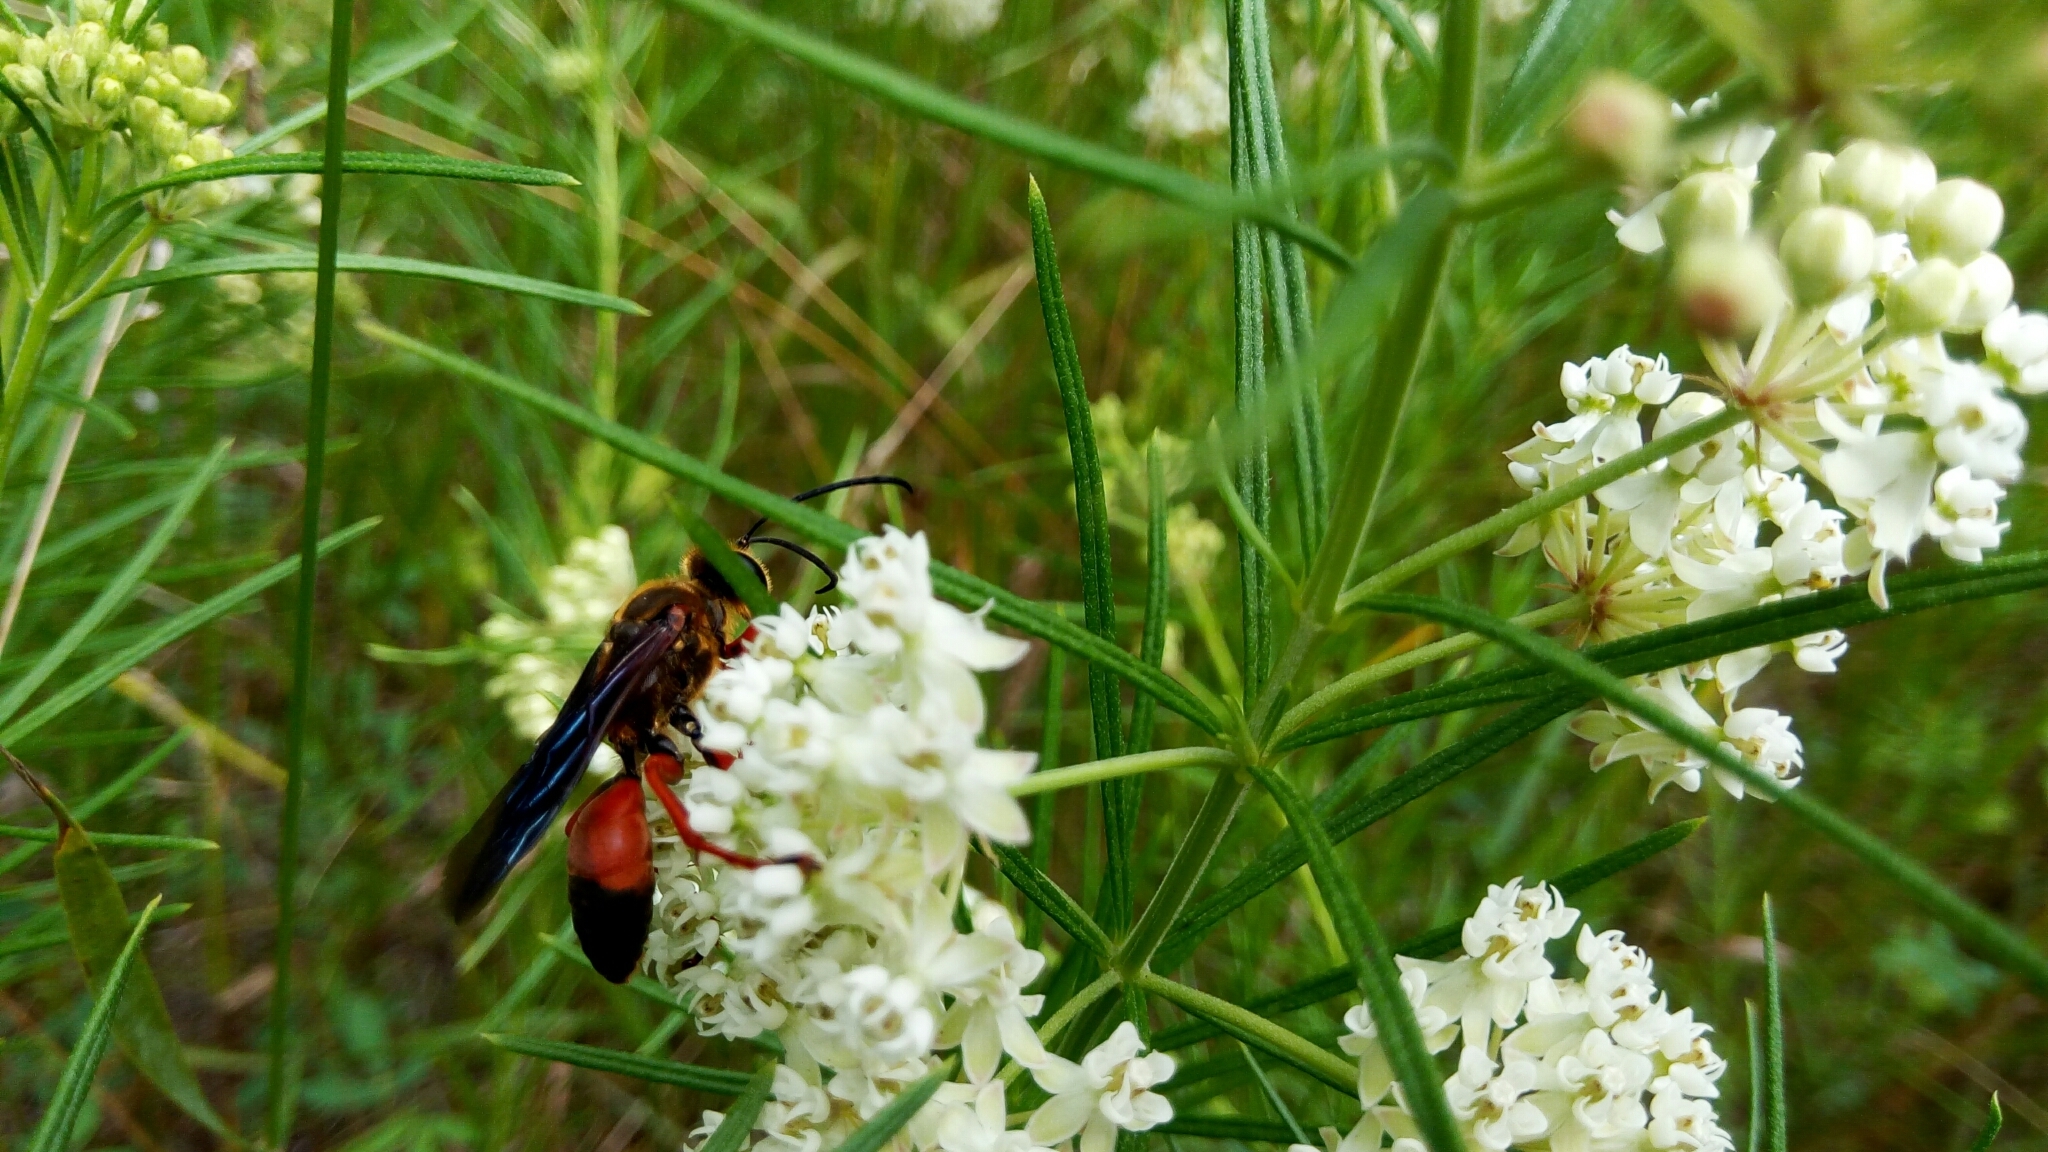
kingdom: Animalia
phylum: Arthropoda
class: Insecta
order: Hymenoptera
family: Sphecidae
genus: Sphex
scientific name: Sphex ichneumoneus
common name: Great golden digger wasp
